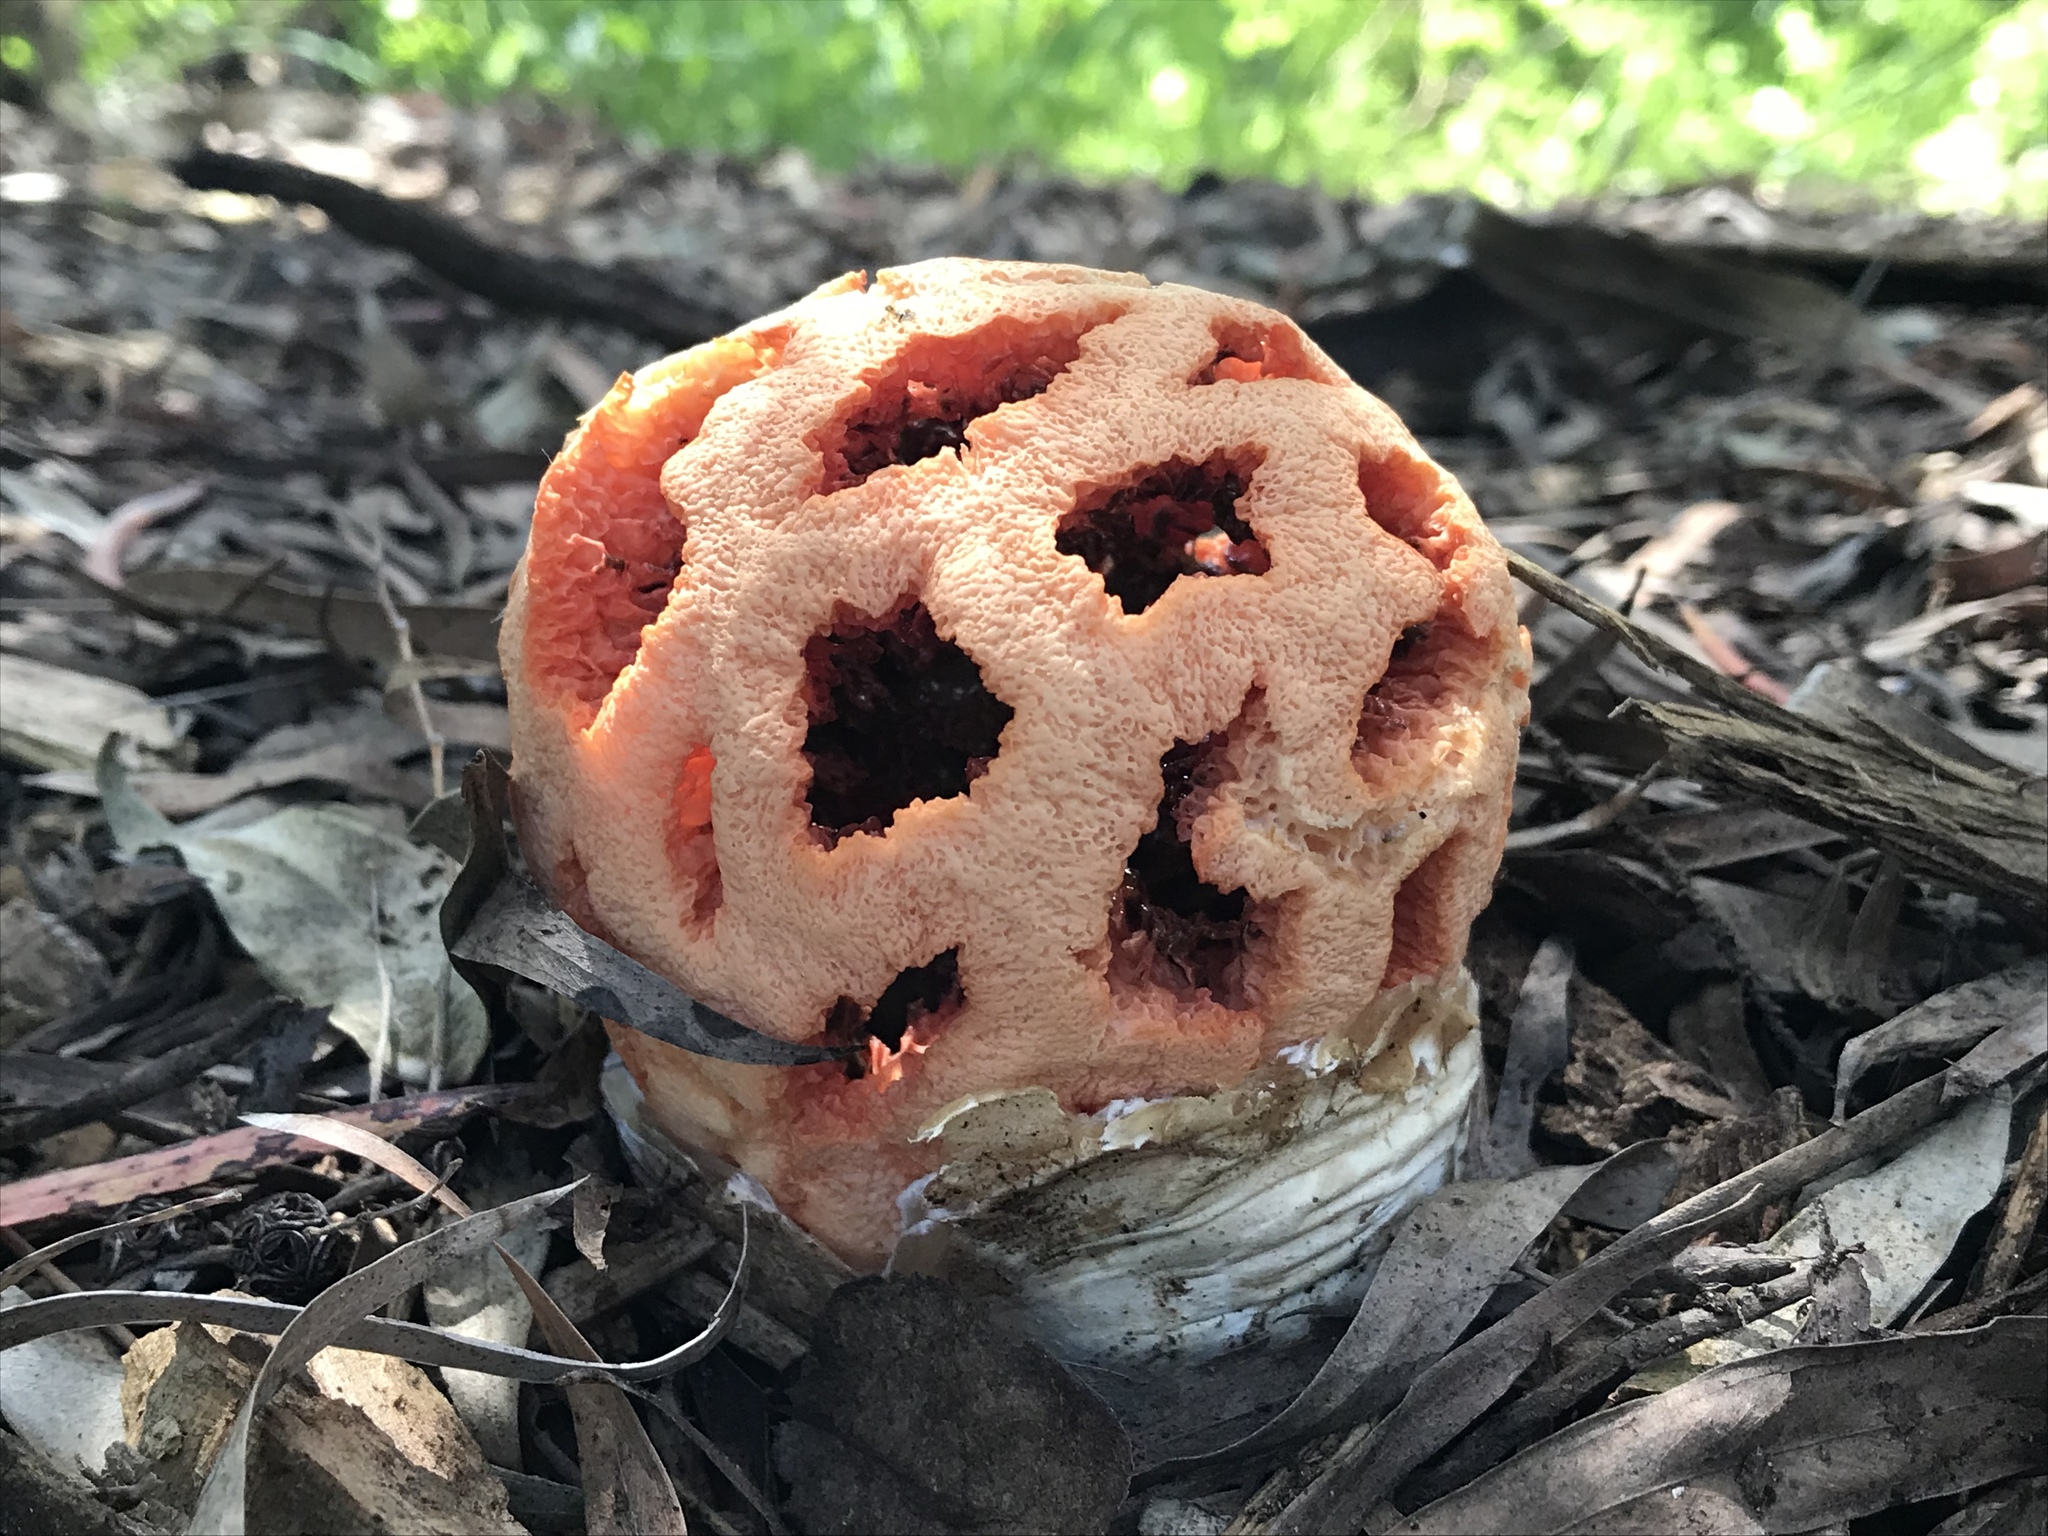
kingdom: Fungi
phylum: Basidiomycota
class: Agaricomycetes
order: Phallales
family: Phallaceae
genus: Clathrus
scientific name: Clathrus ruber
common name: Red cage
